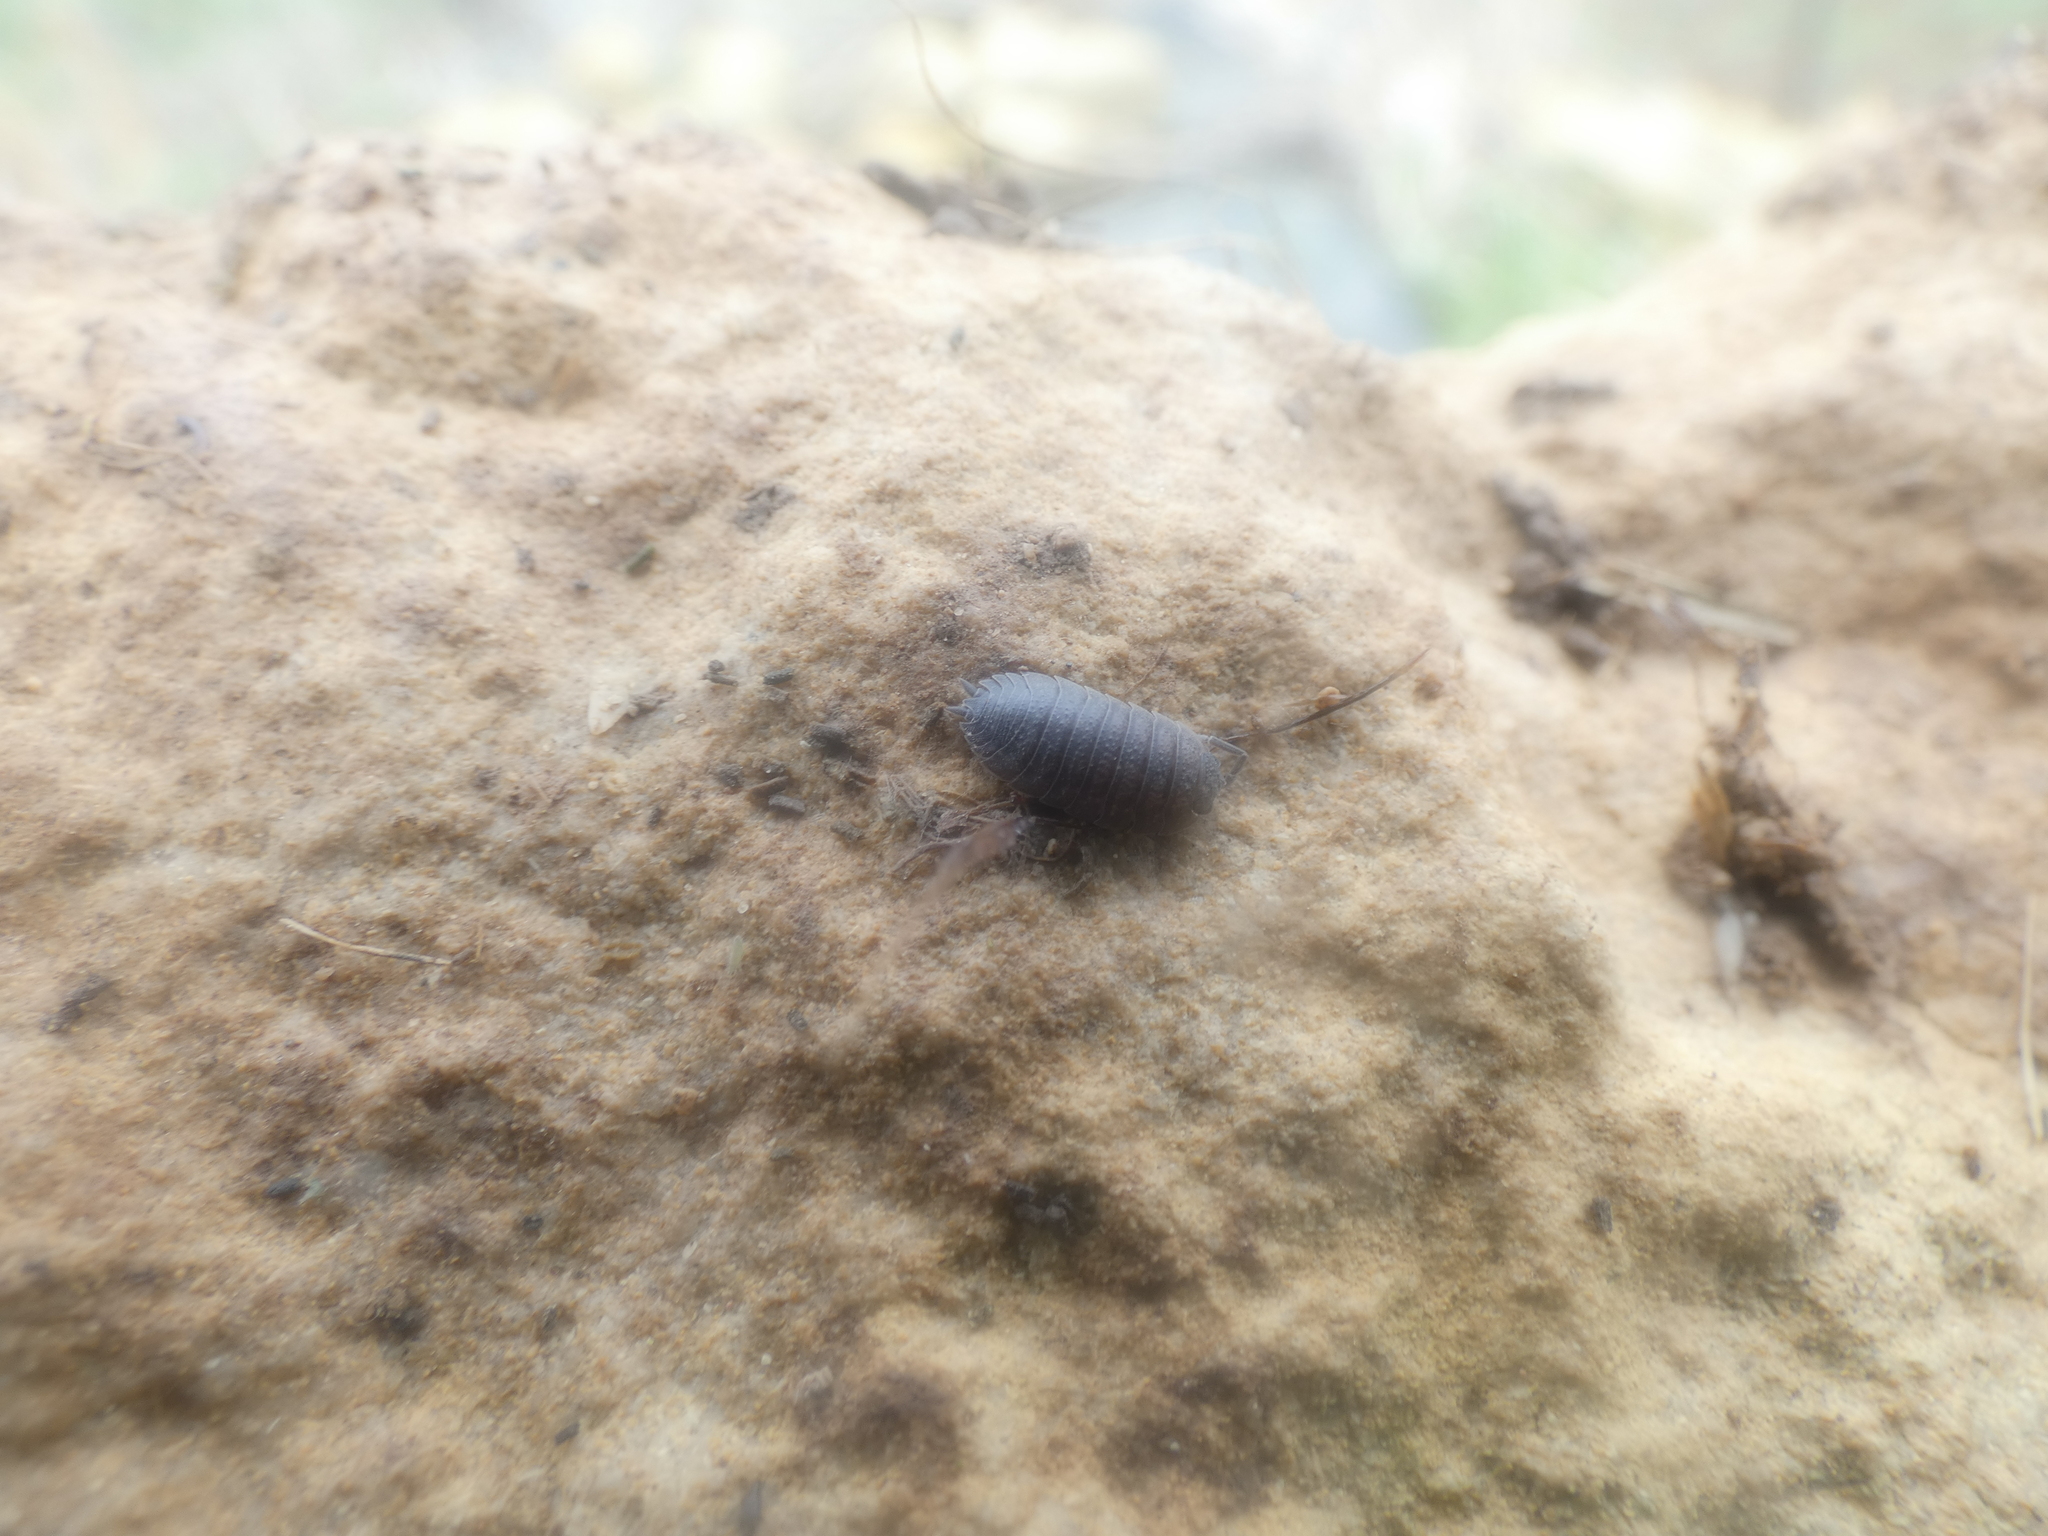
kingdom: Animalia
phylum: Arthropoda
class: Malacostraca
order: Isopoda
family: Porcellionidae
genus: Porcellio
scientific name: Porcellio scaber
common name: Common rough woodlouse
